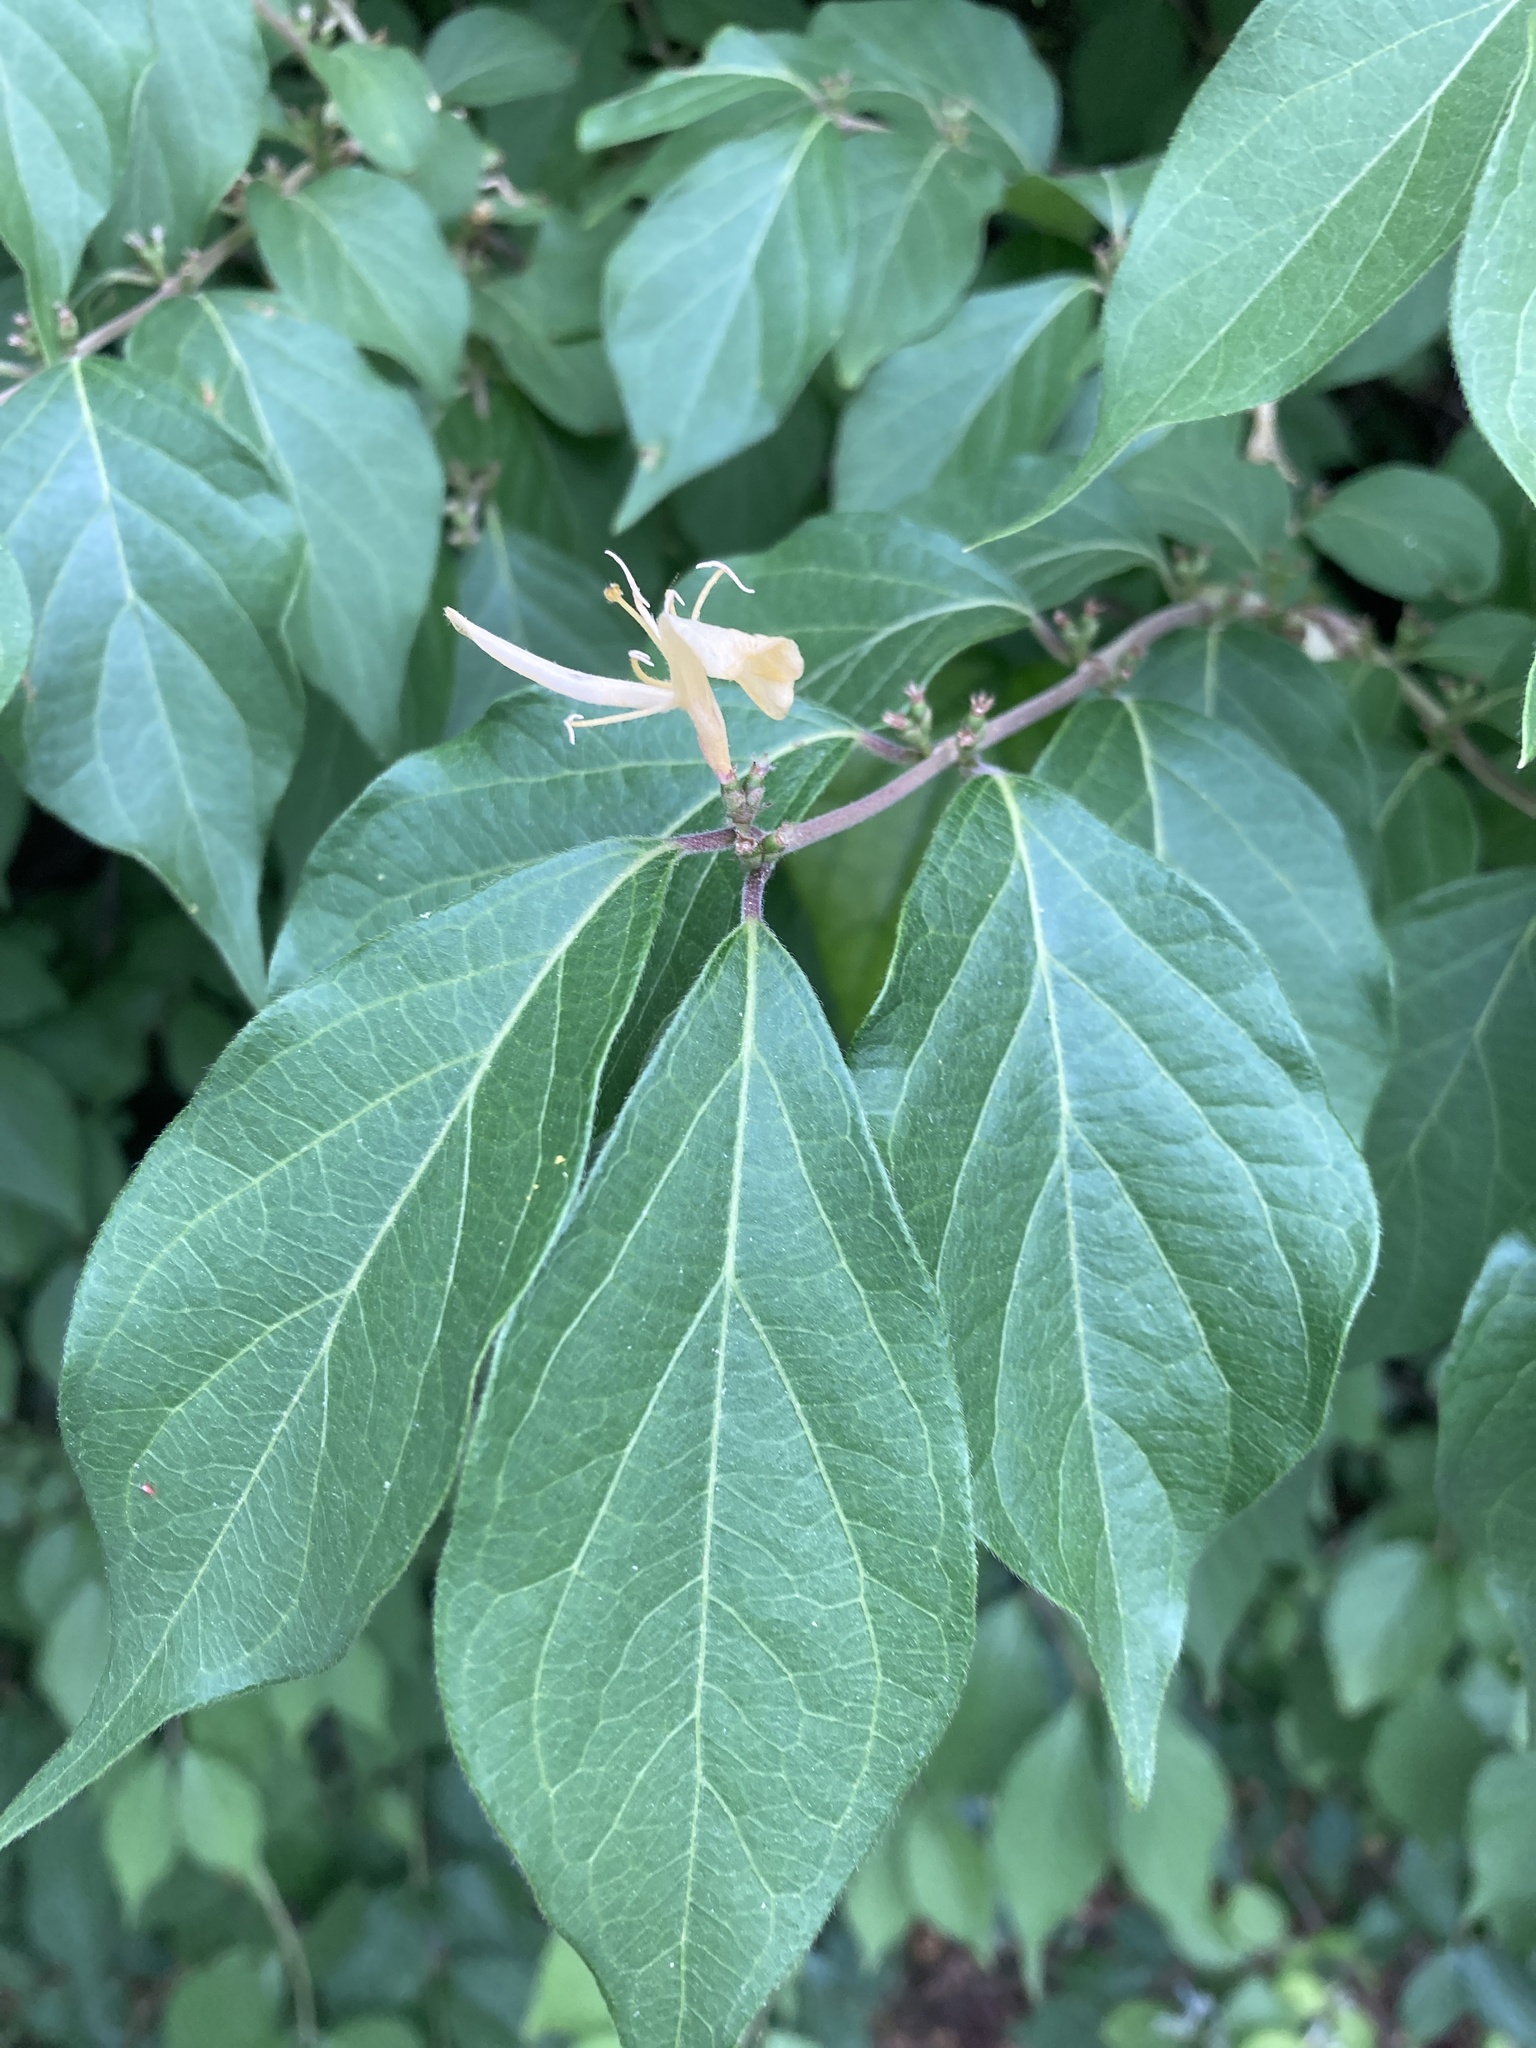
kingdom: Plantae
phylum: Tracheophyta
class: Magnoliopsida
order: Dipsacales
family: Caprifoliaceae
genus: Lonicera
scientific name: Lonicera maackii
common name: Amur honeysuckle
